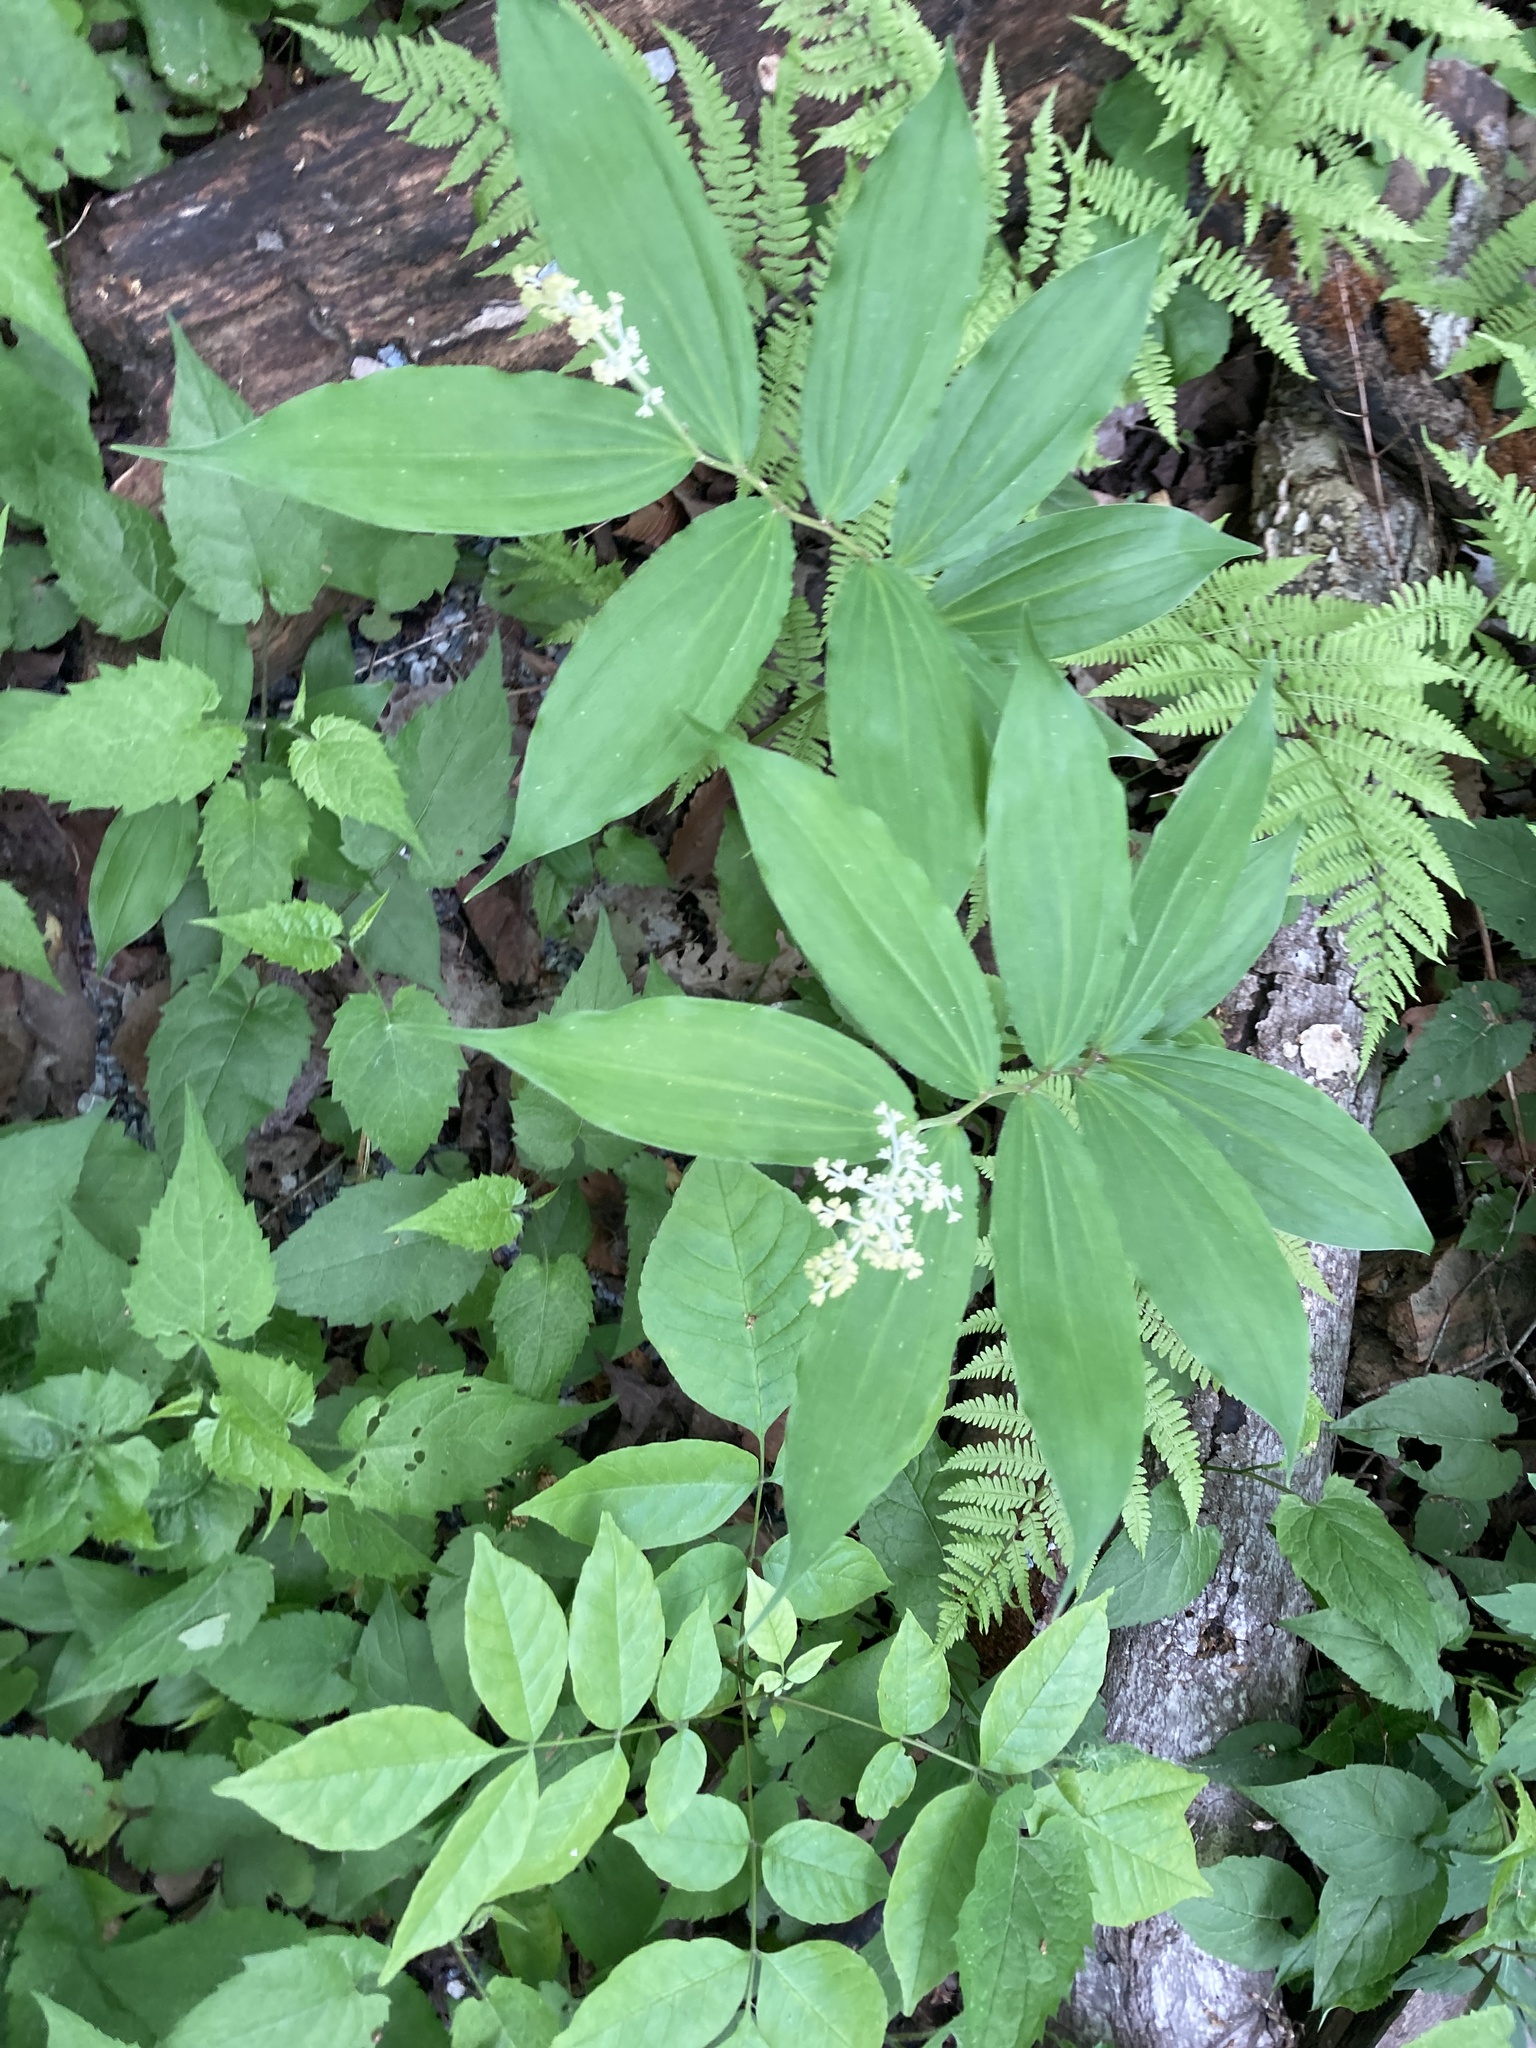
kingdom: Plantae
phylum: Tracheophyta
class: Liliopsida
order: Asparagales
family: Asparagaceae
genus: Maianthemum
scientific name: Maianthemum racemosum
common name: False spikenard
